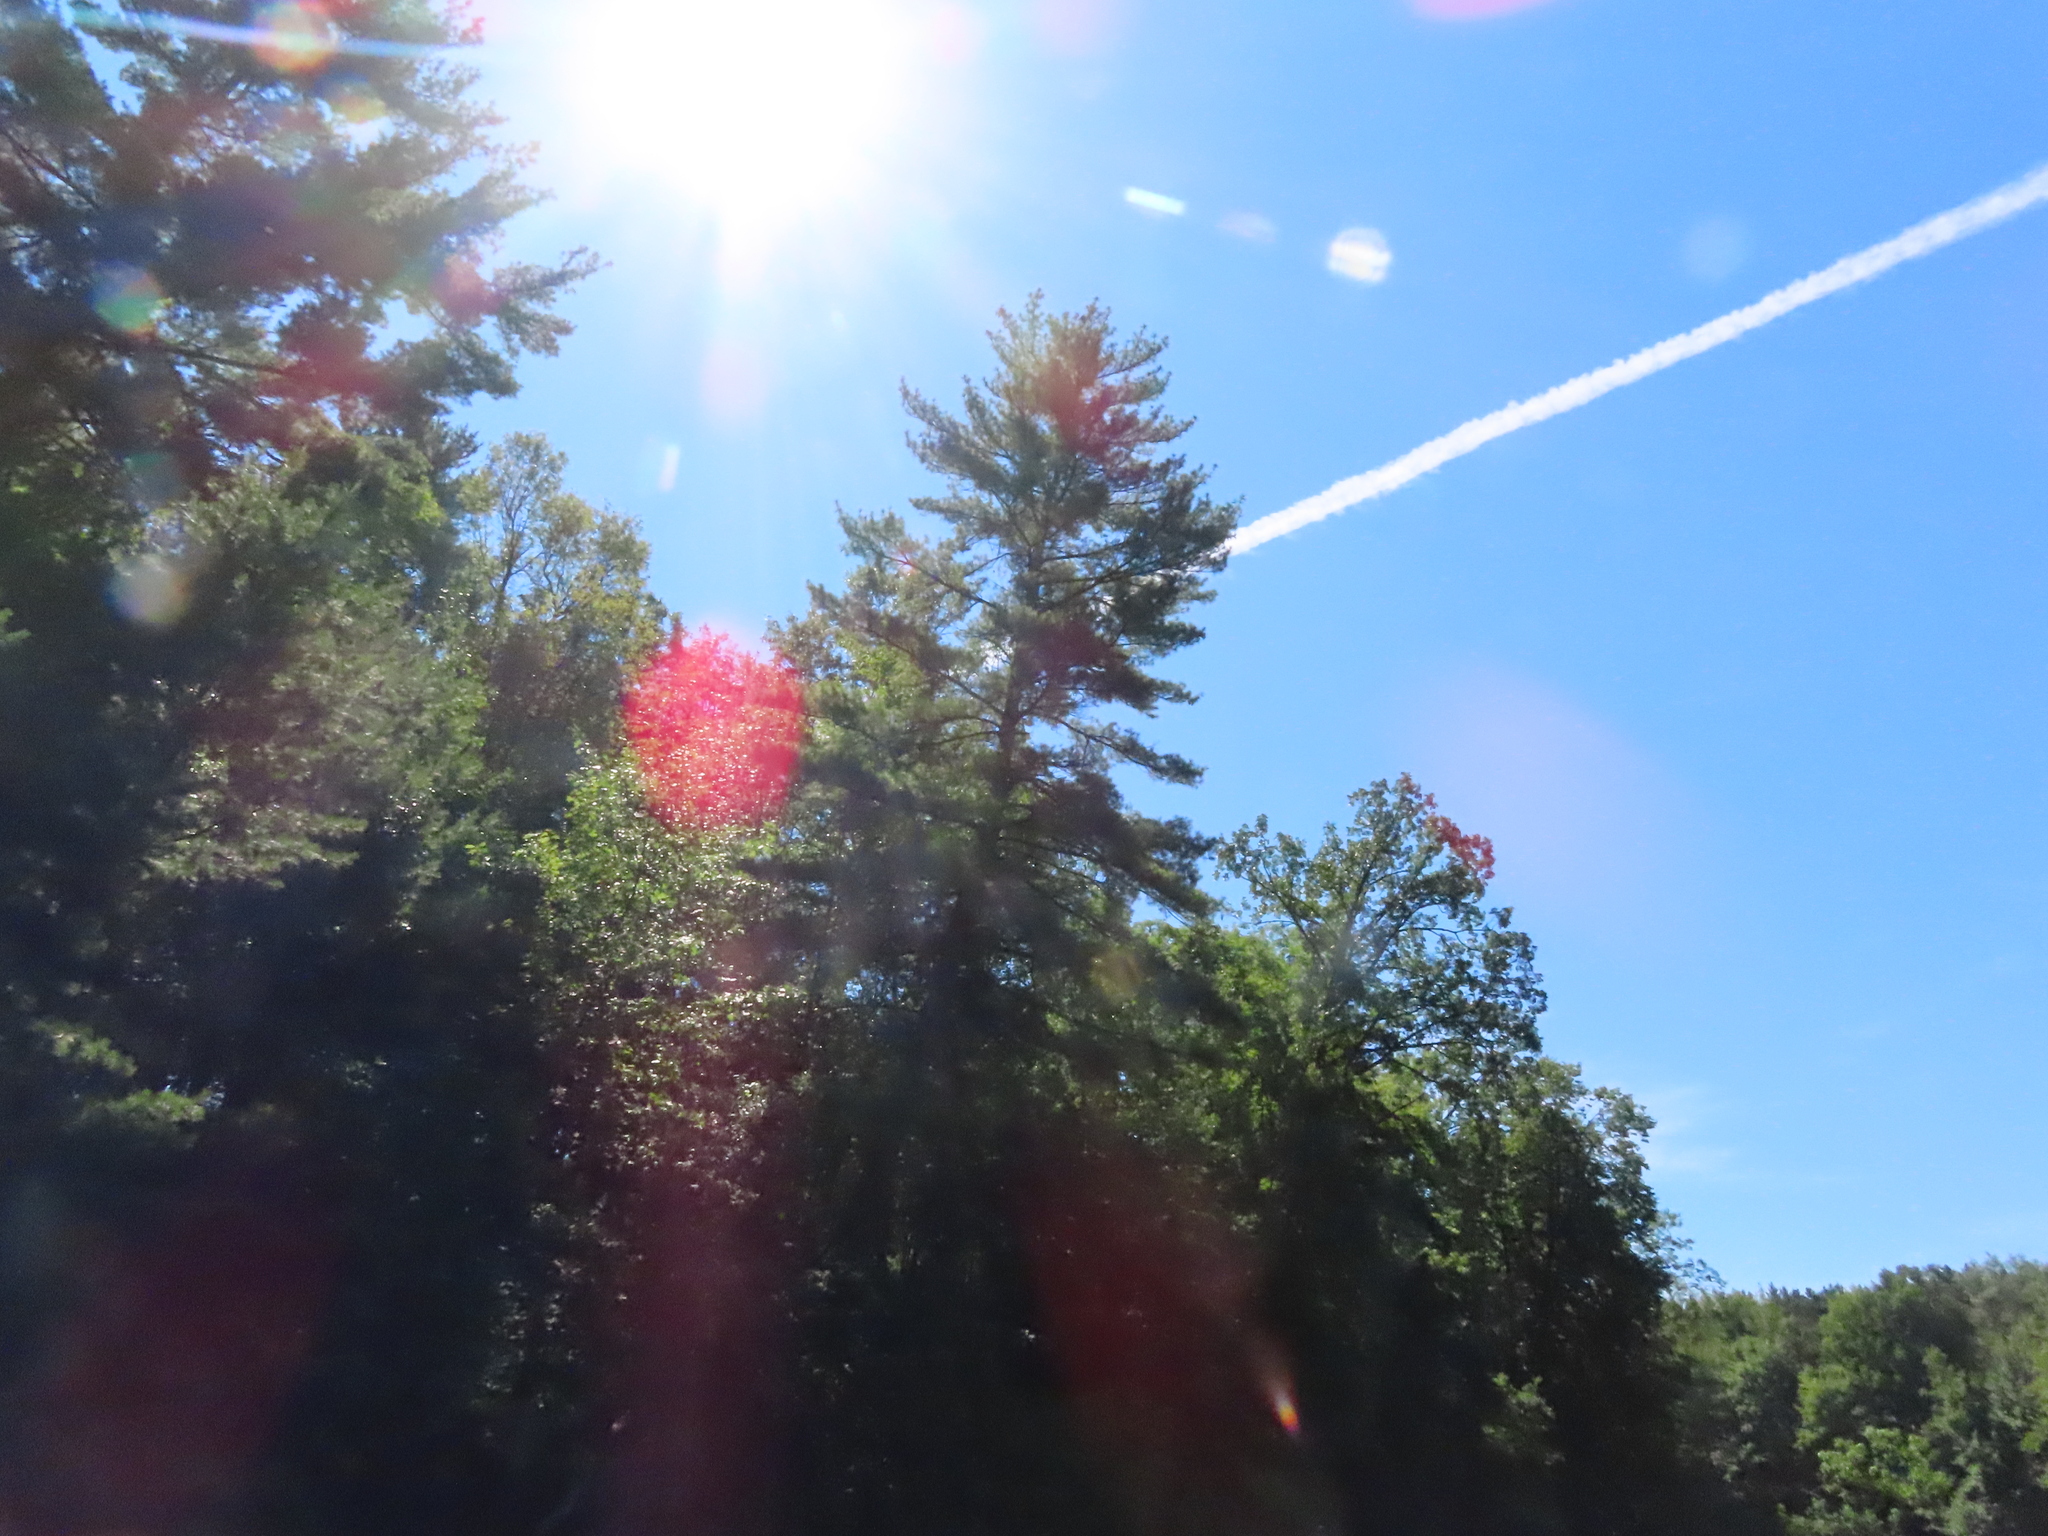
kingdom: Plantae
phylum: Tracheophyta
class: Pinopsida
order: Pinales
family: Pinaceae
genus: Pinus
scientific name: Pinus strobus
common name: Weymouth pine
